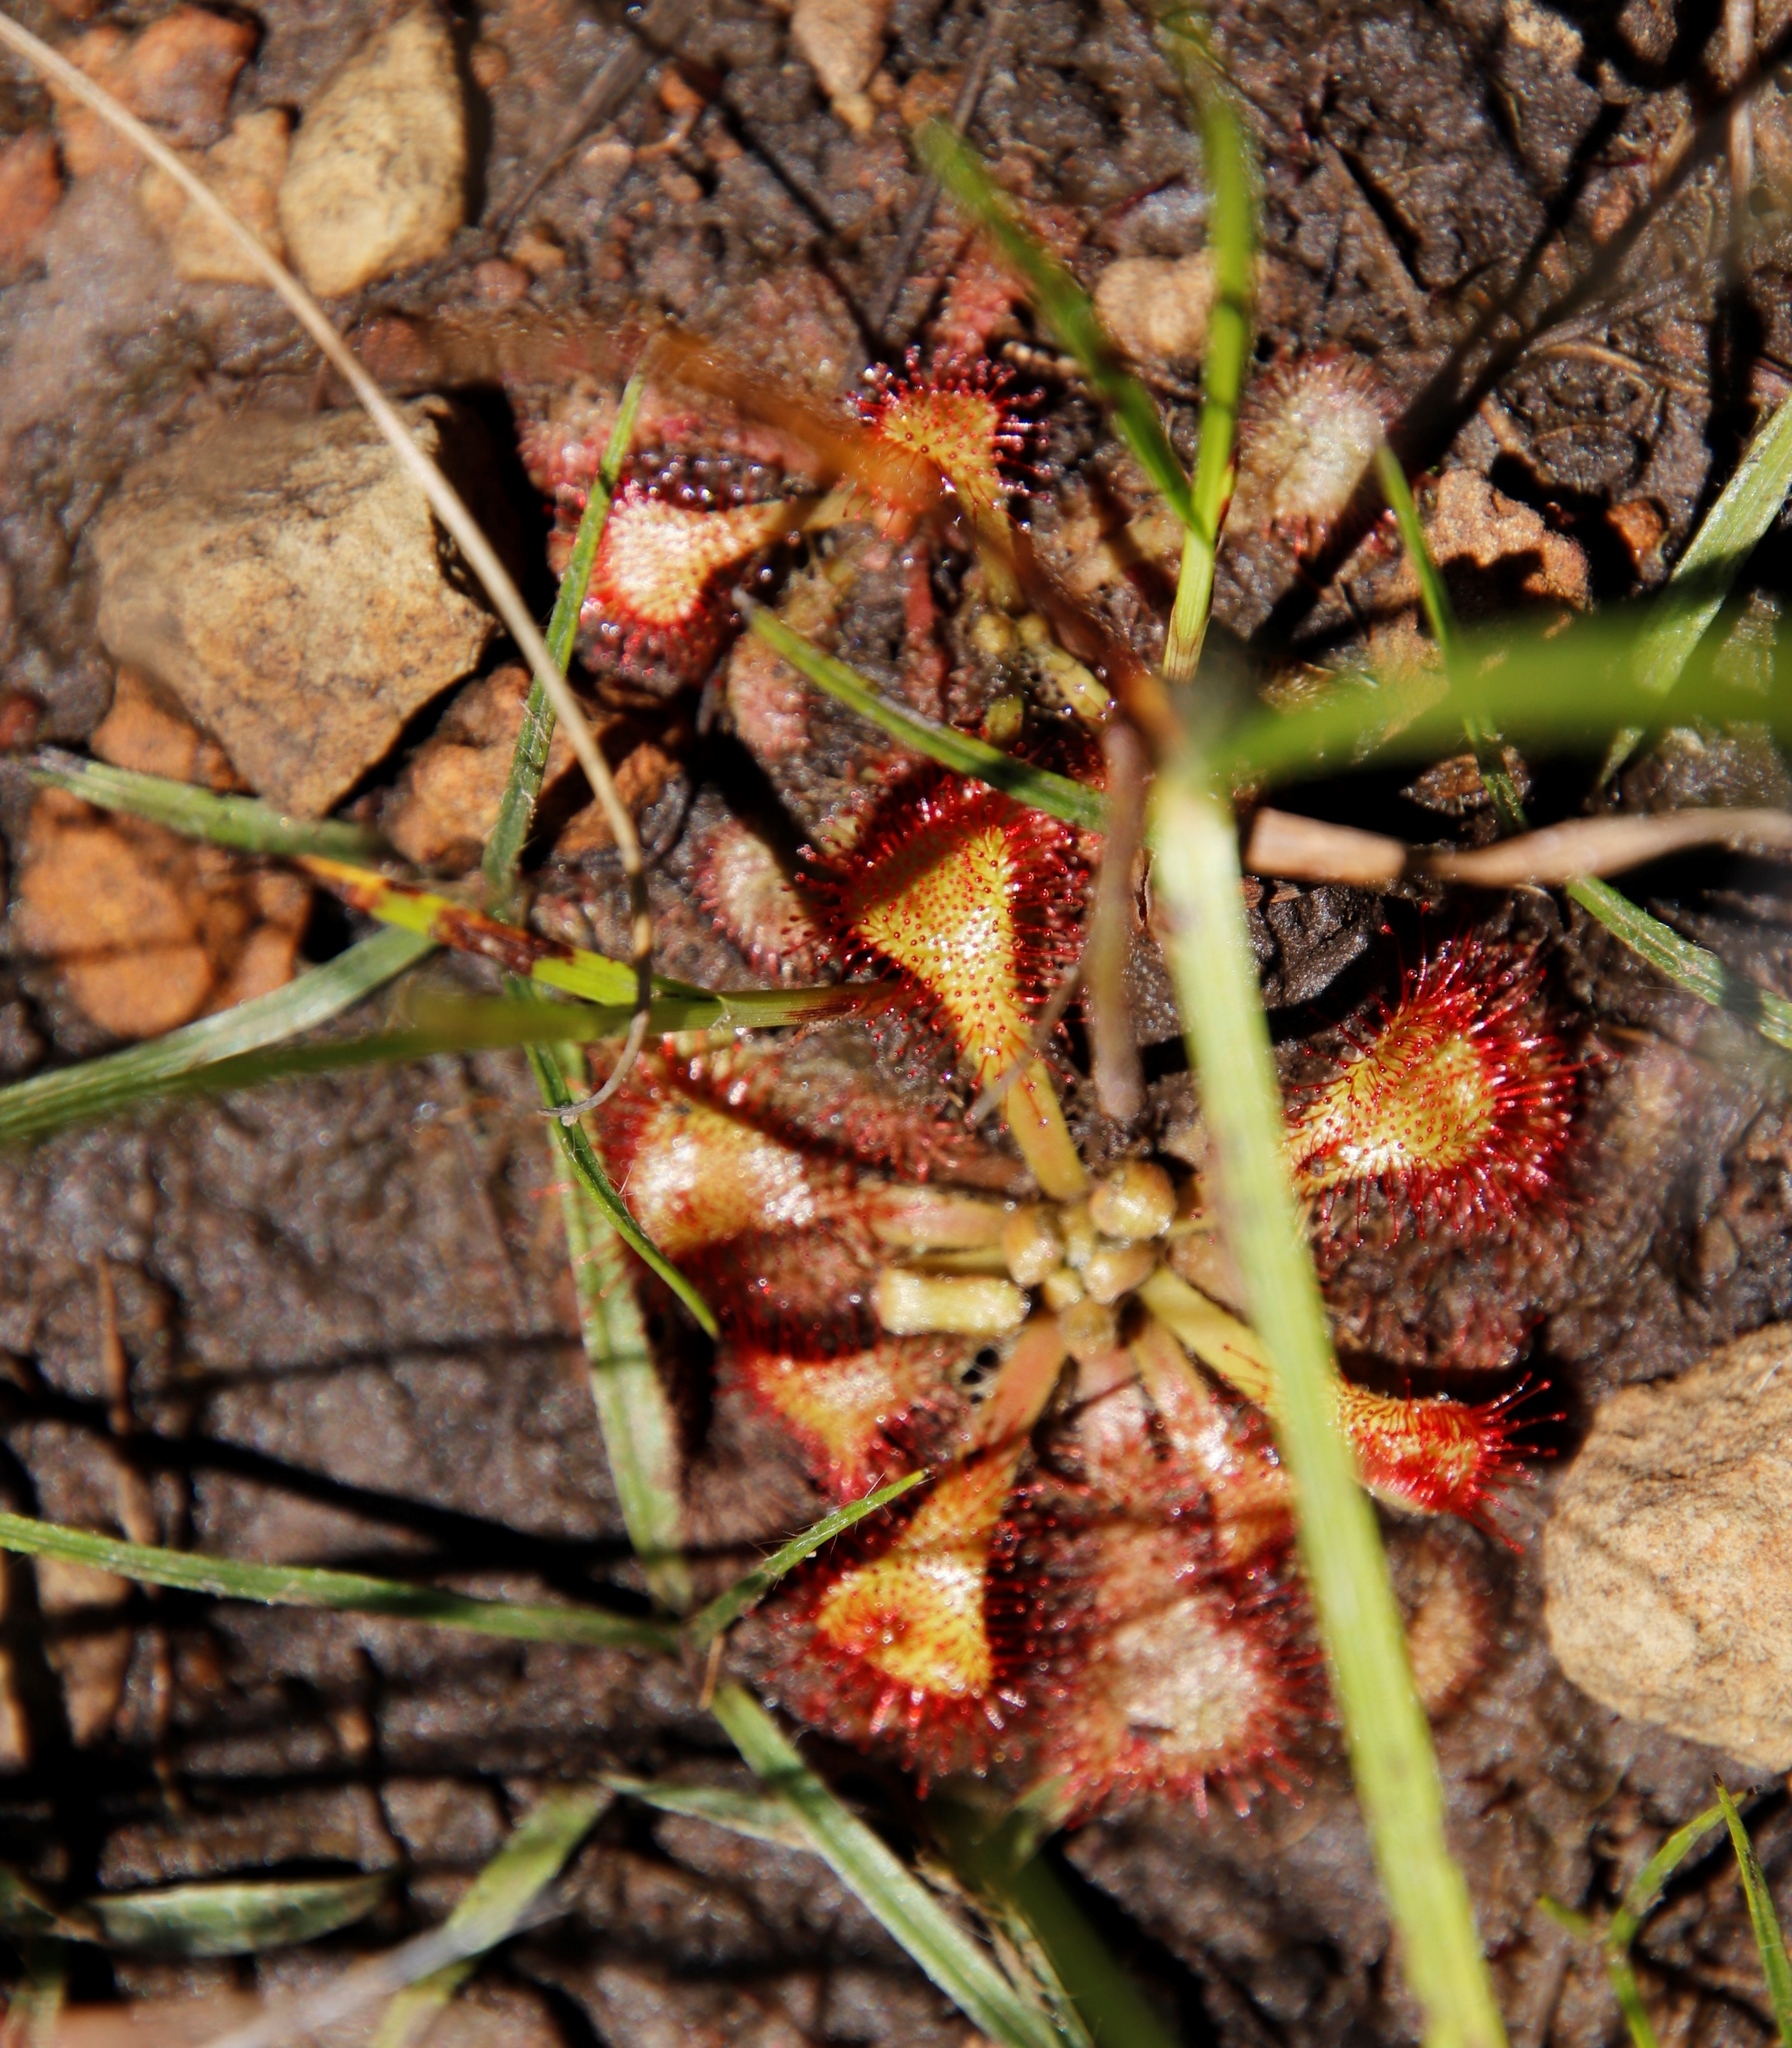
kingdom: Plantae
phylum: Tracheophyta
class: Magnoliopsida
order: Caryophyllales
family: Droseraceae
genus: Drosera
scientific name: Drosera natalensis
